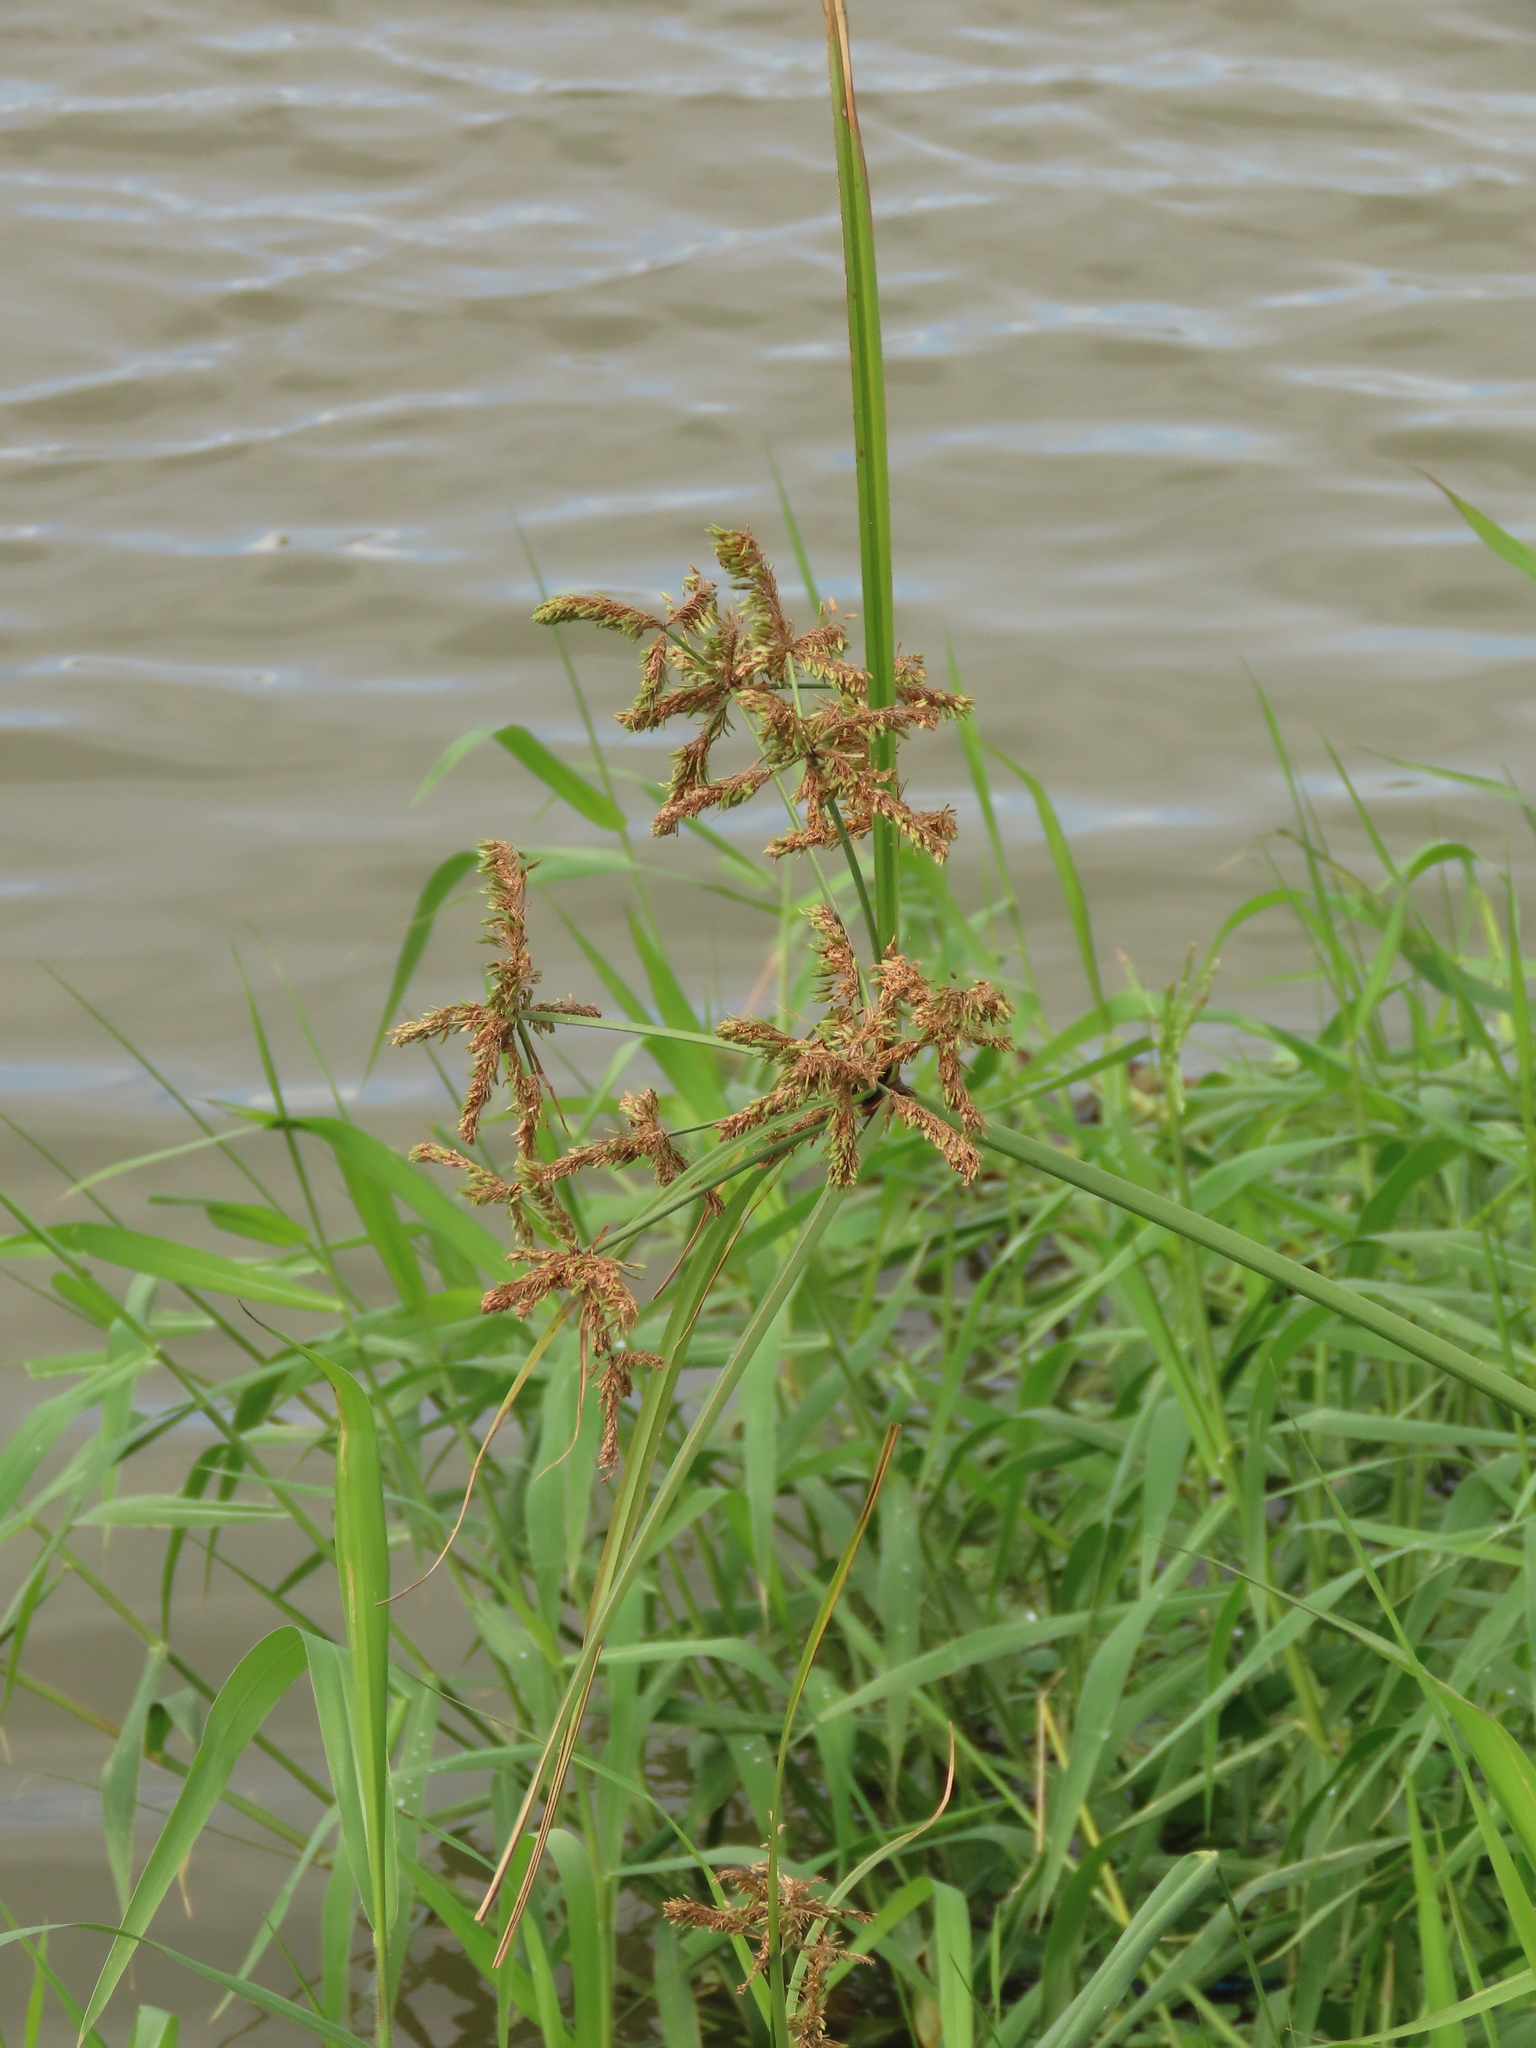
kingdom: Plantae
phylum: Tracheophyta
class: Liliopsida
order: Poales
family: Cyperaceae
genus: Cyperus
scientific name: Cyperus imbricatus
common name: Shingle flatsedge
